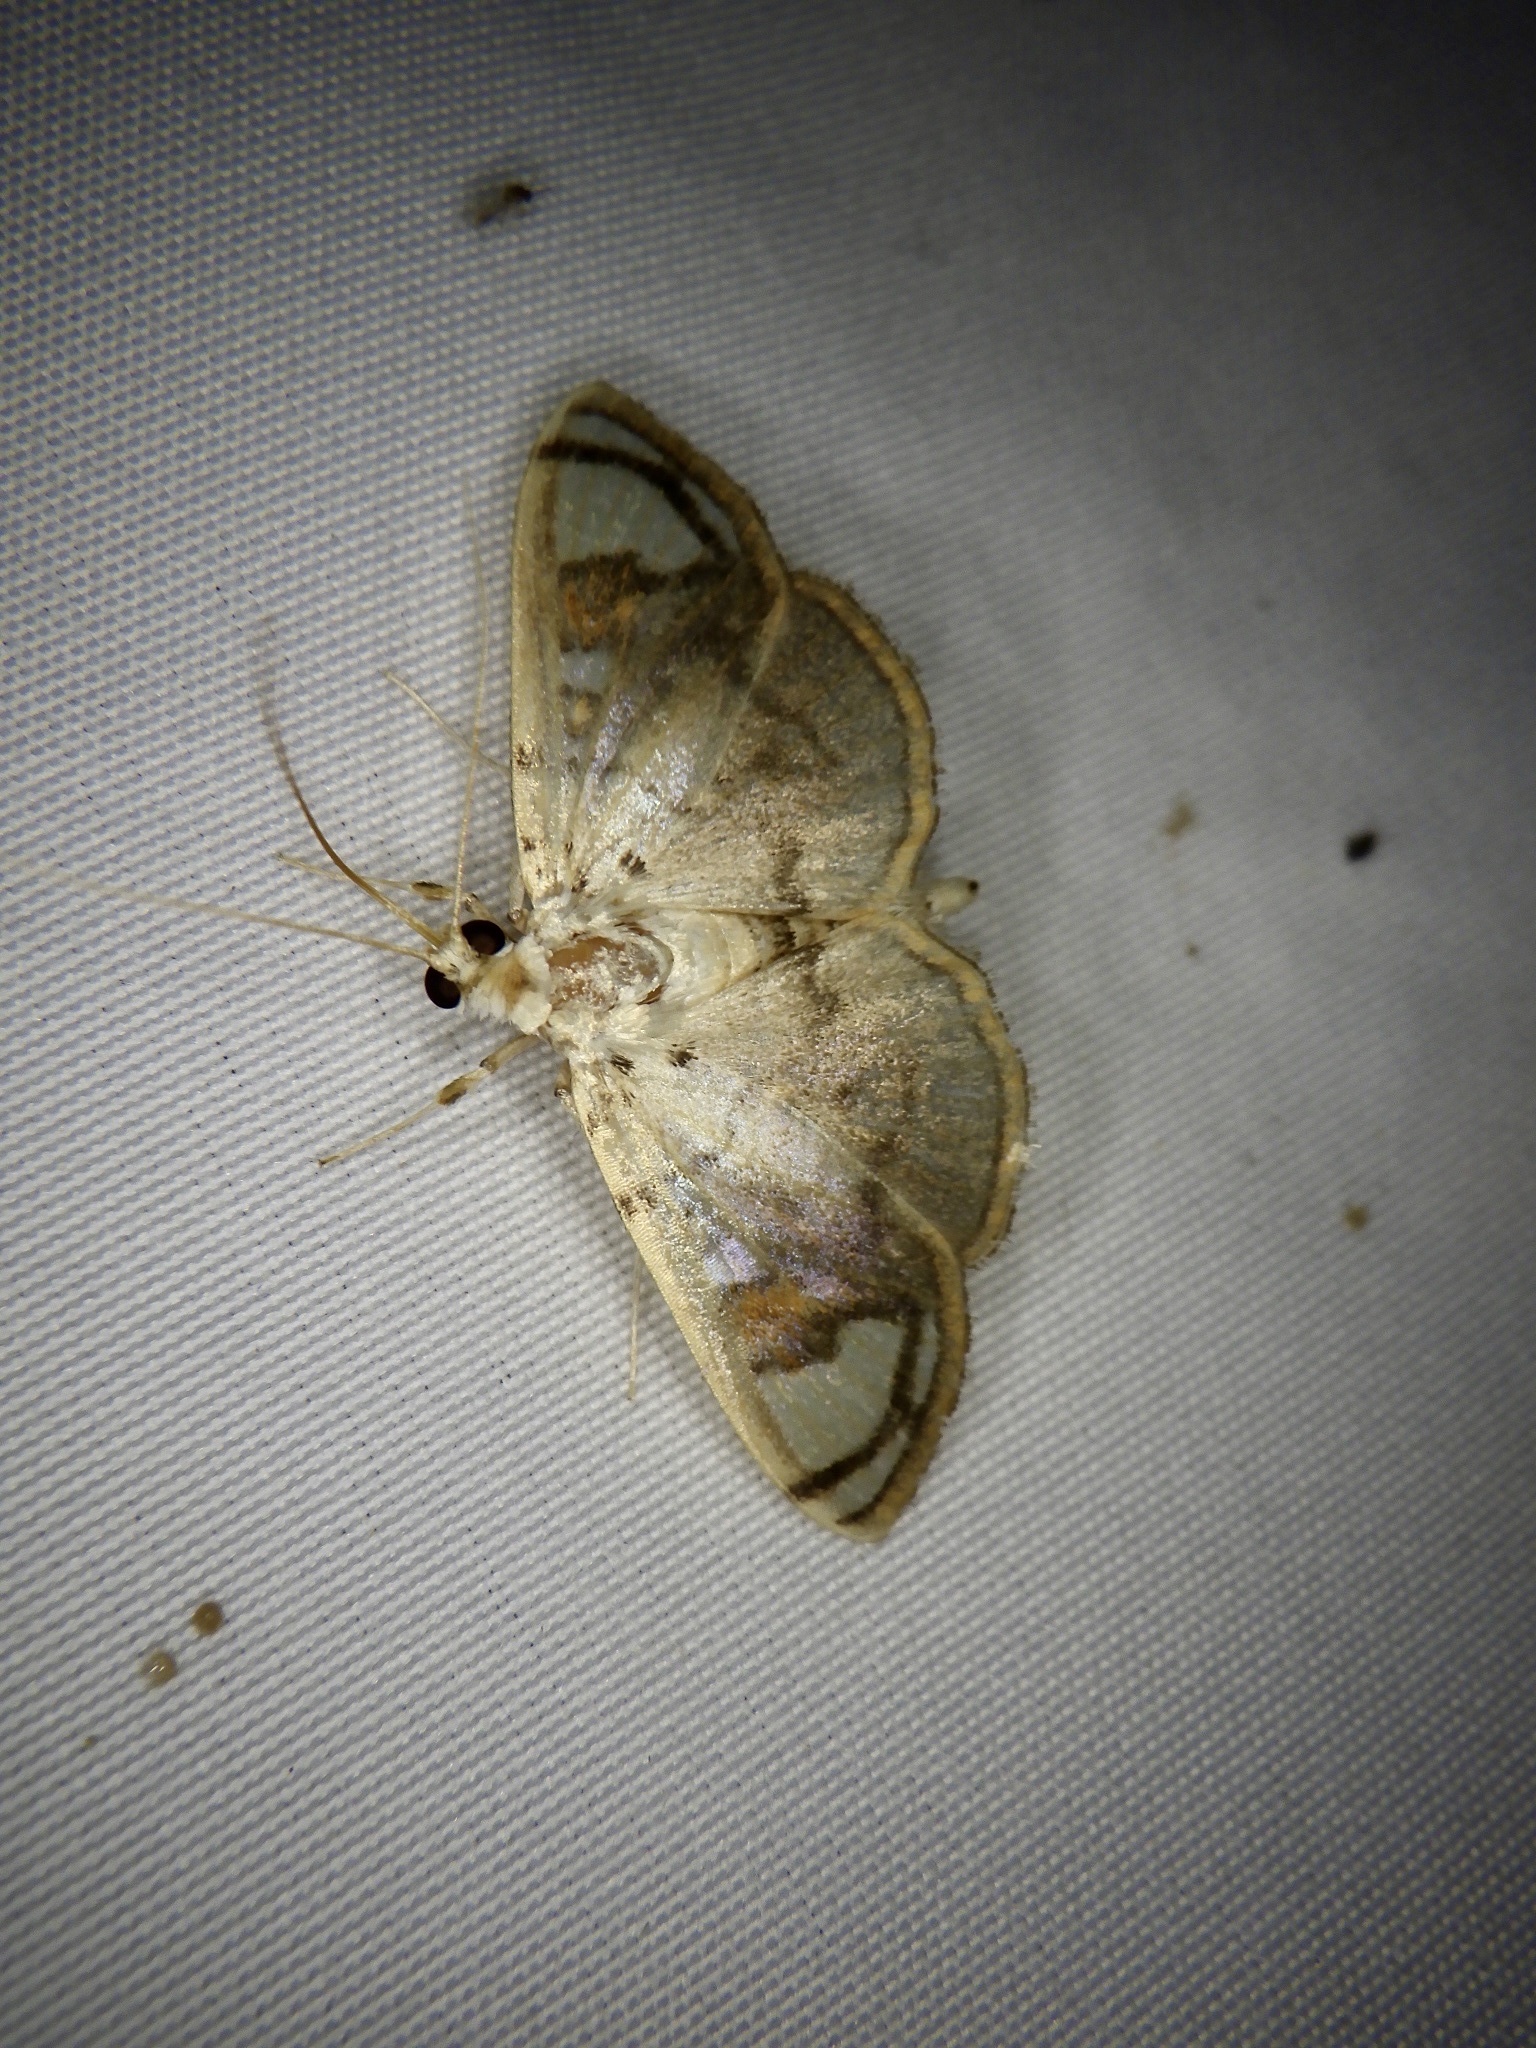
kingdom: Animalia
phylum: Arthropoda
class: Insecta
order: Lepidoptera
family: Crambidae
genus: Pycnarmon
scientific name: Pycnarmon pantherata
